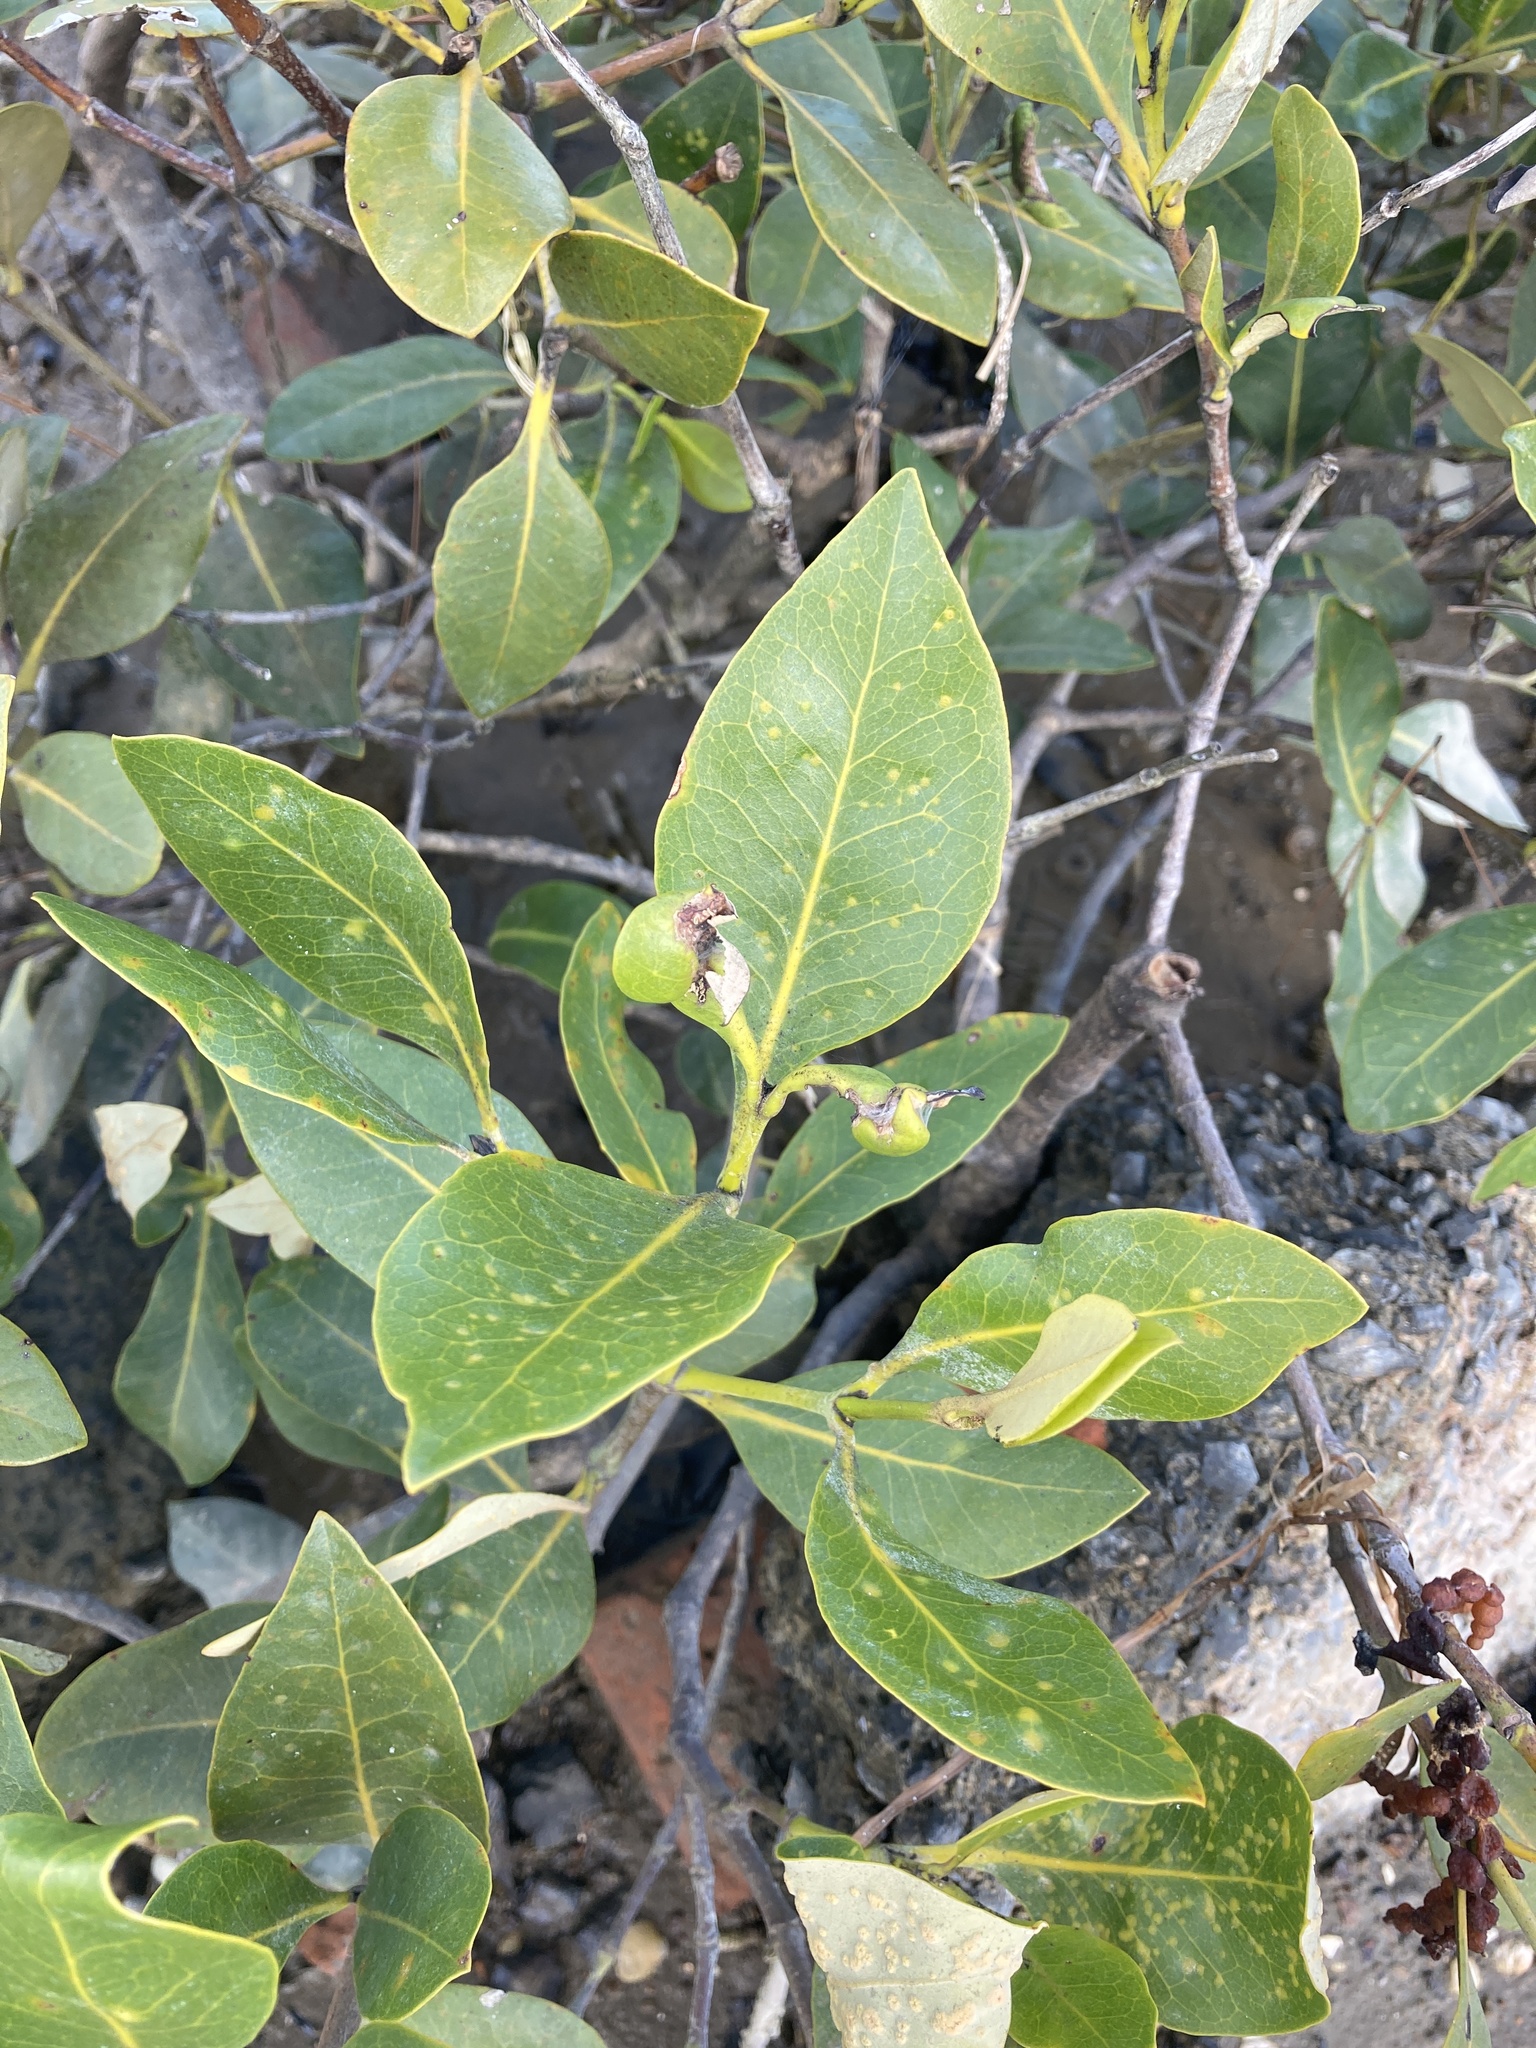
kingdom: Plantae
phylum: Tracheophyta
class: Magnoliopsida
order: Lamiales
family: Acanthaceae
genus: Avicennia
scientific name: Avicennia marina
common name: Gray mangrove
